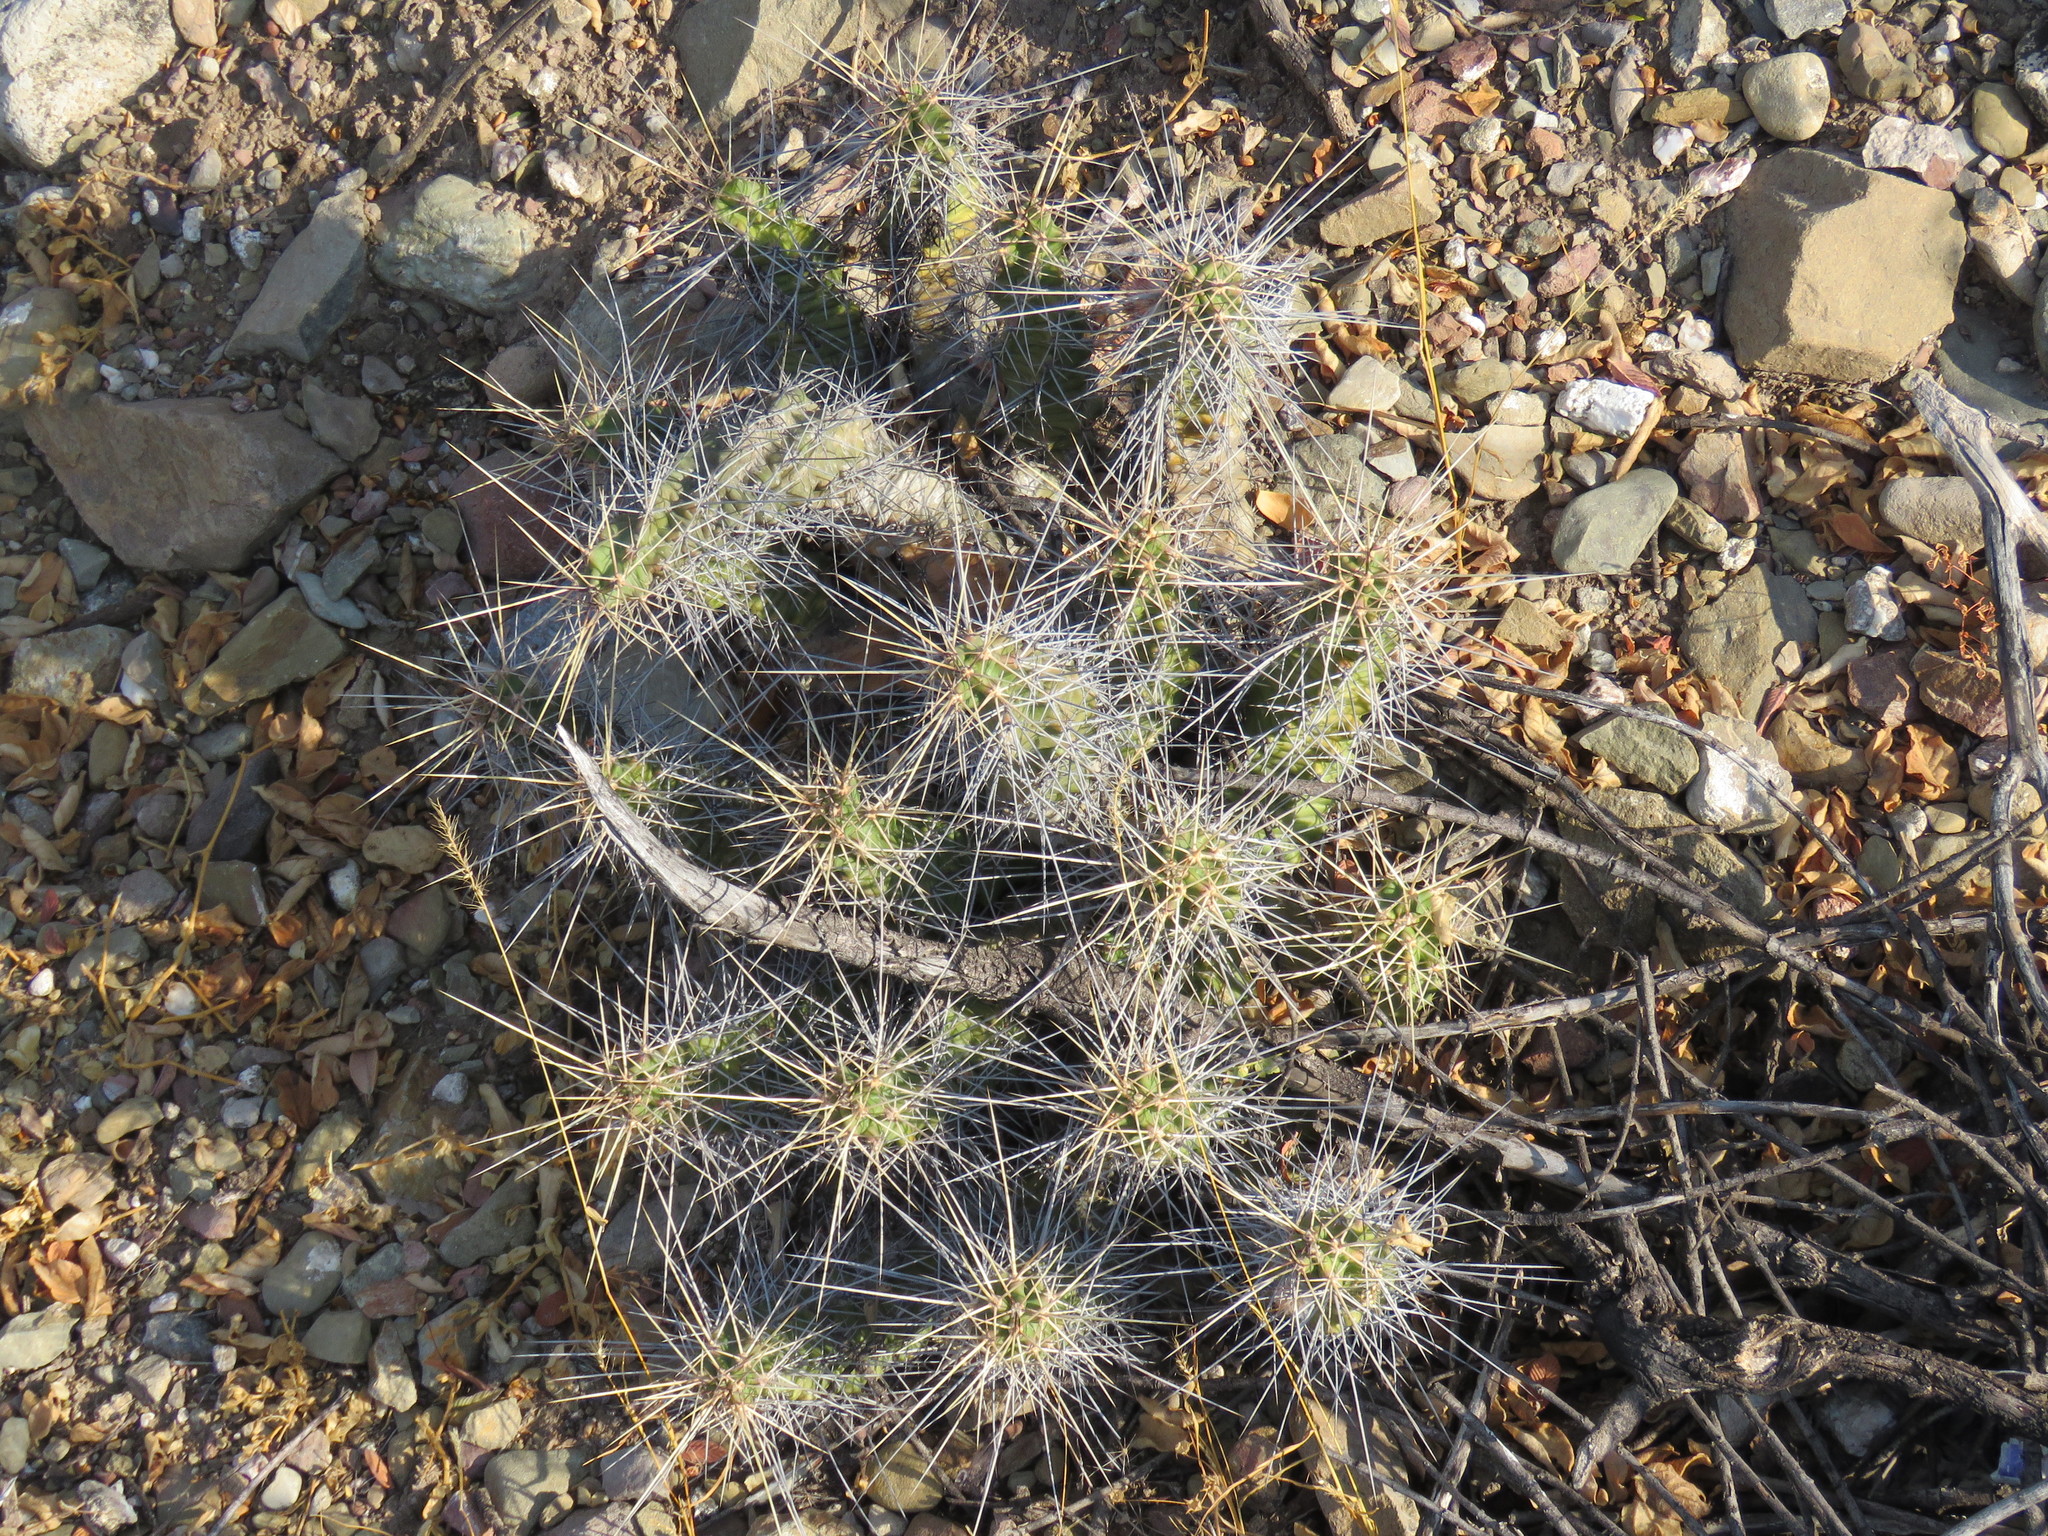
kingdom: Plantae
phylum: Tracheophyta
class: Magnoliopsida
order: Caryophyllales
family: Cactaceae
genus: Echinocereus
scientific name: Echinocereus pentalophus
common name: Ladyfinger cactus
